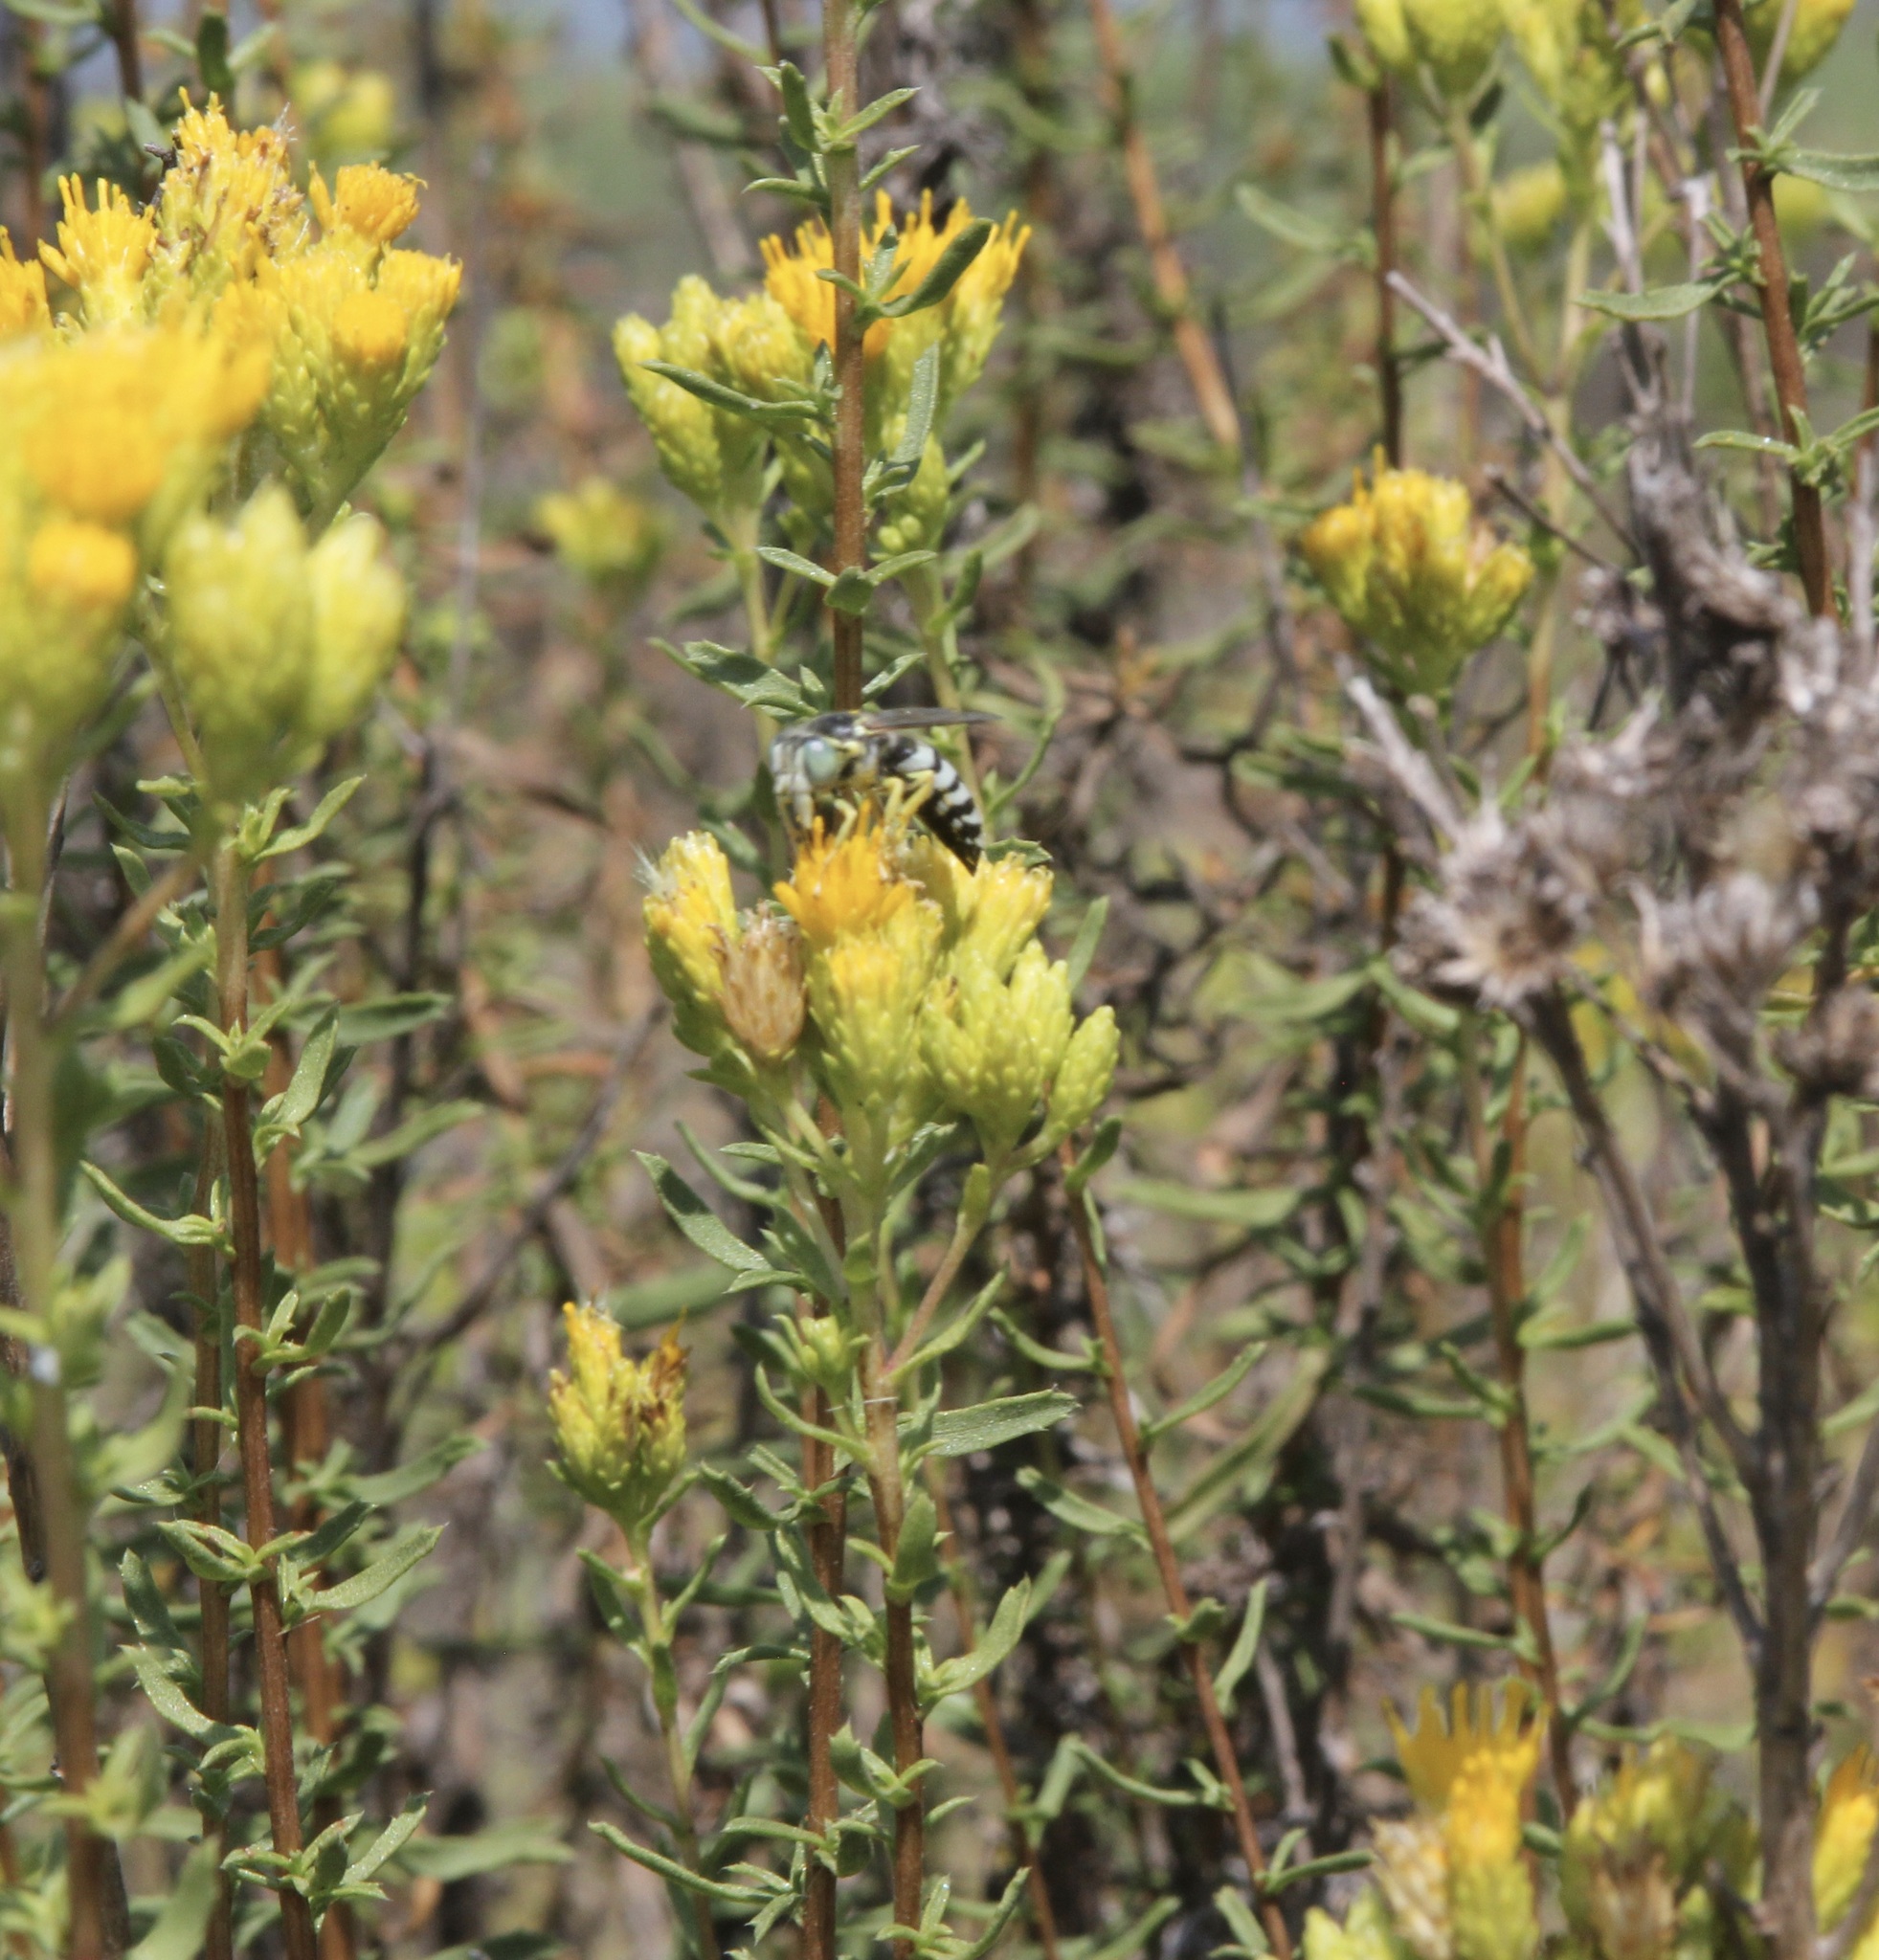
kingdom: Animalia
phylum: Arthropoda
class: Insecta
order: Hymenoptera
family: Crabronidae
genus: Bembix
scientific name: Bembix americana
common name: American sand wasp
